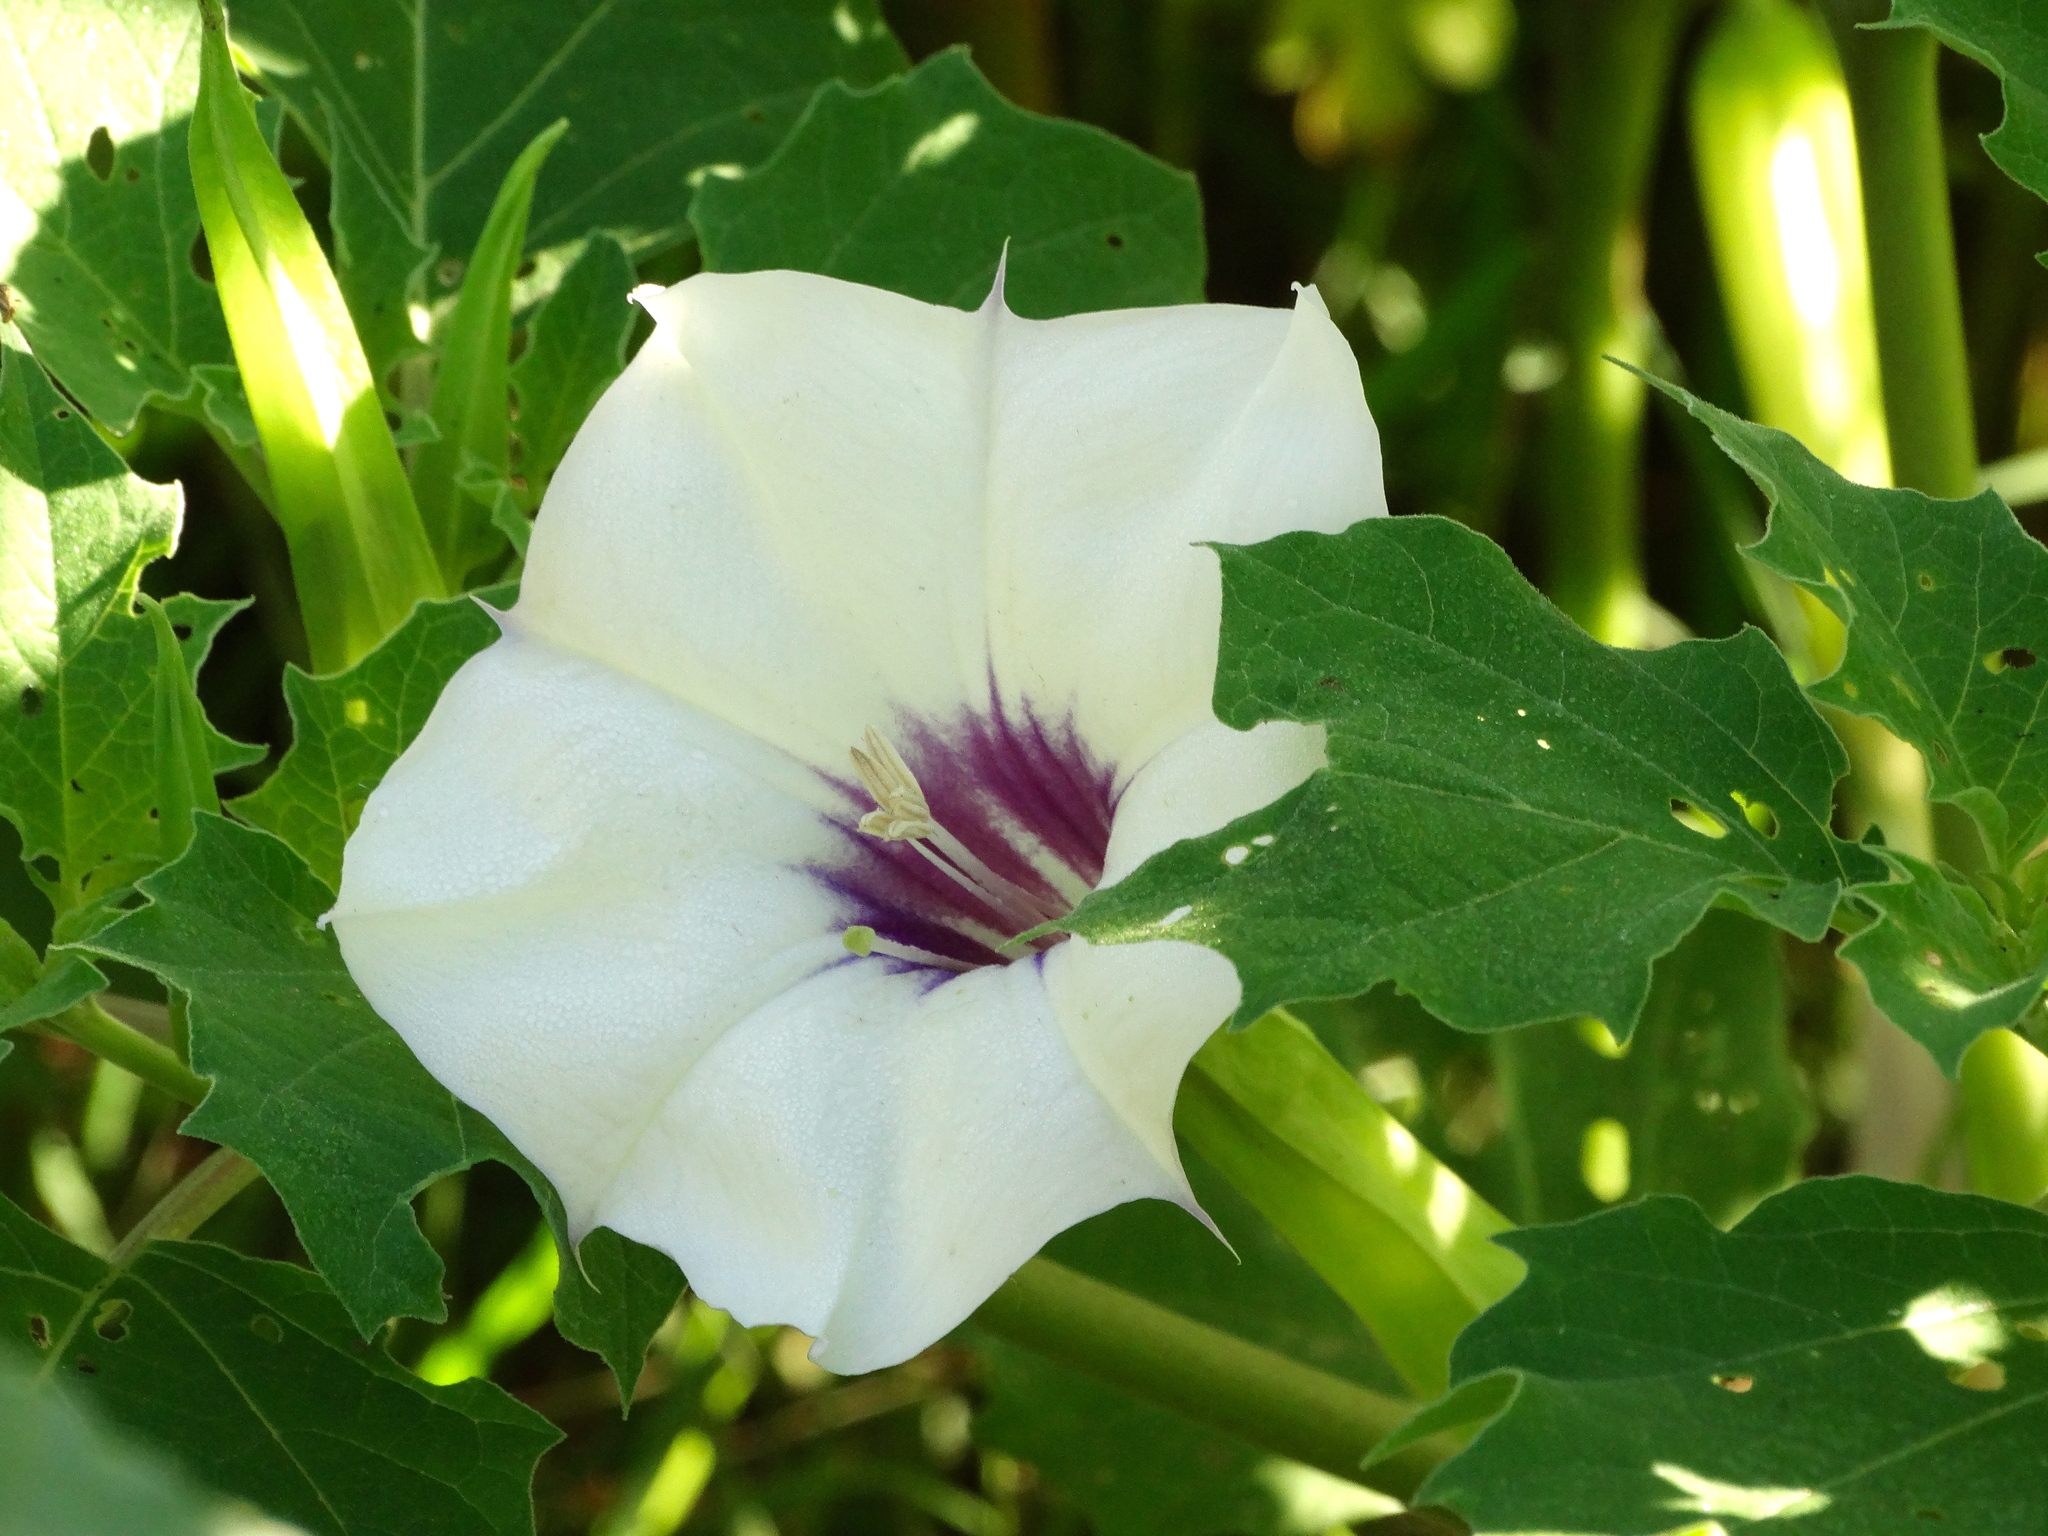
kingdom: Plantae
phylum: Tracheophyta
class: Magnoliopsida
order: Solanales
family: Solanaceae
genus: Datura
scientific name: Datura discolor
